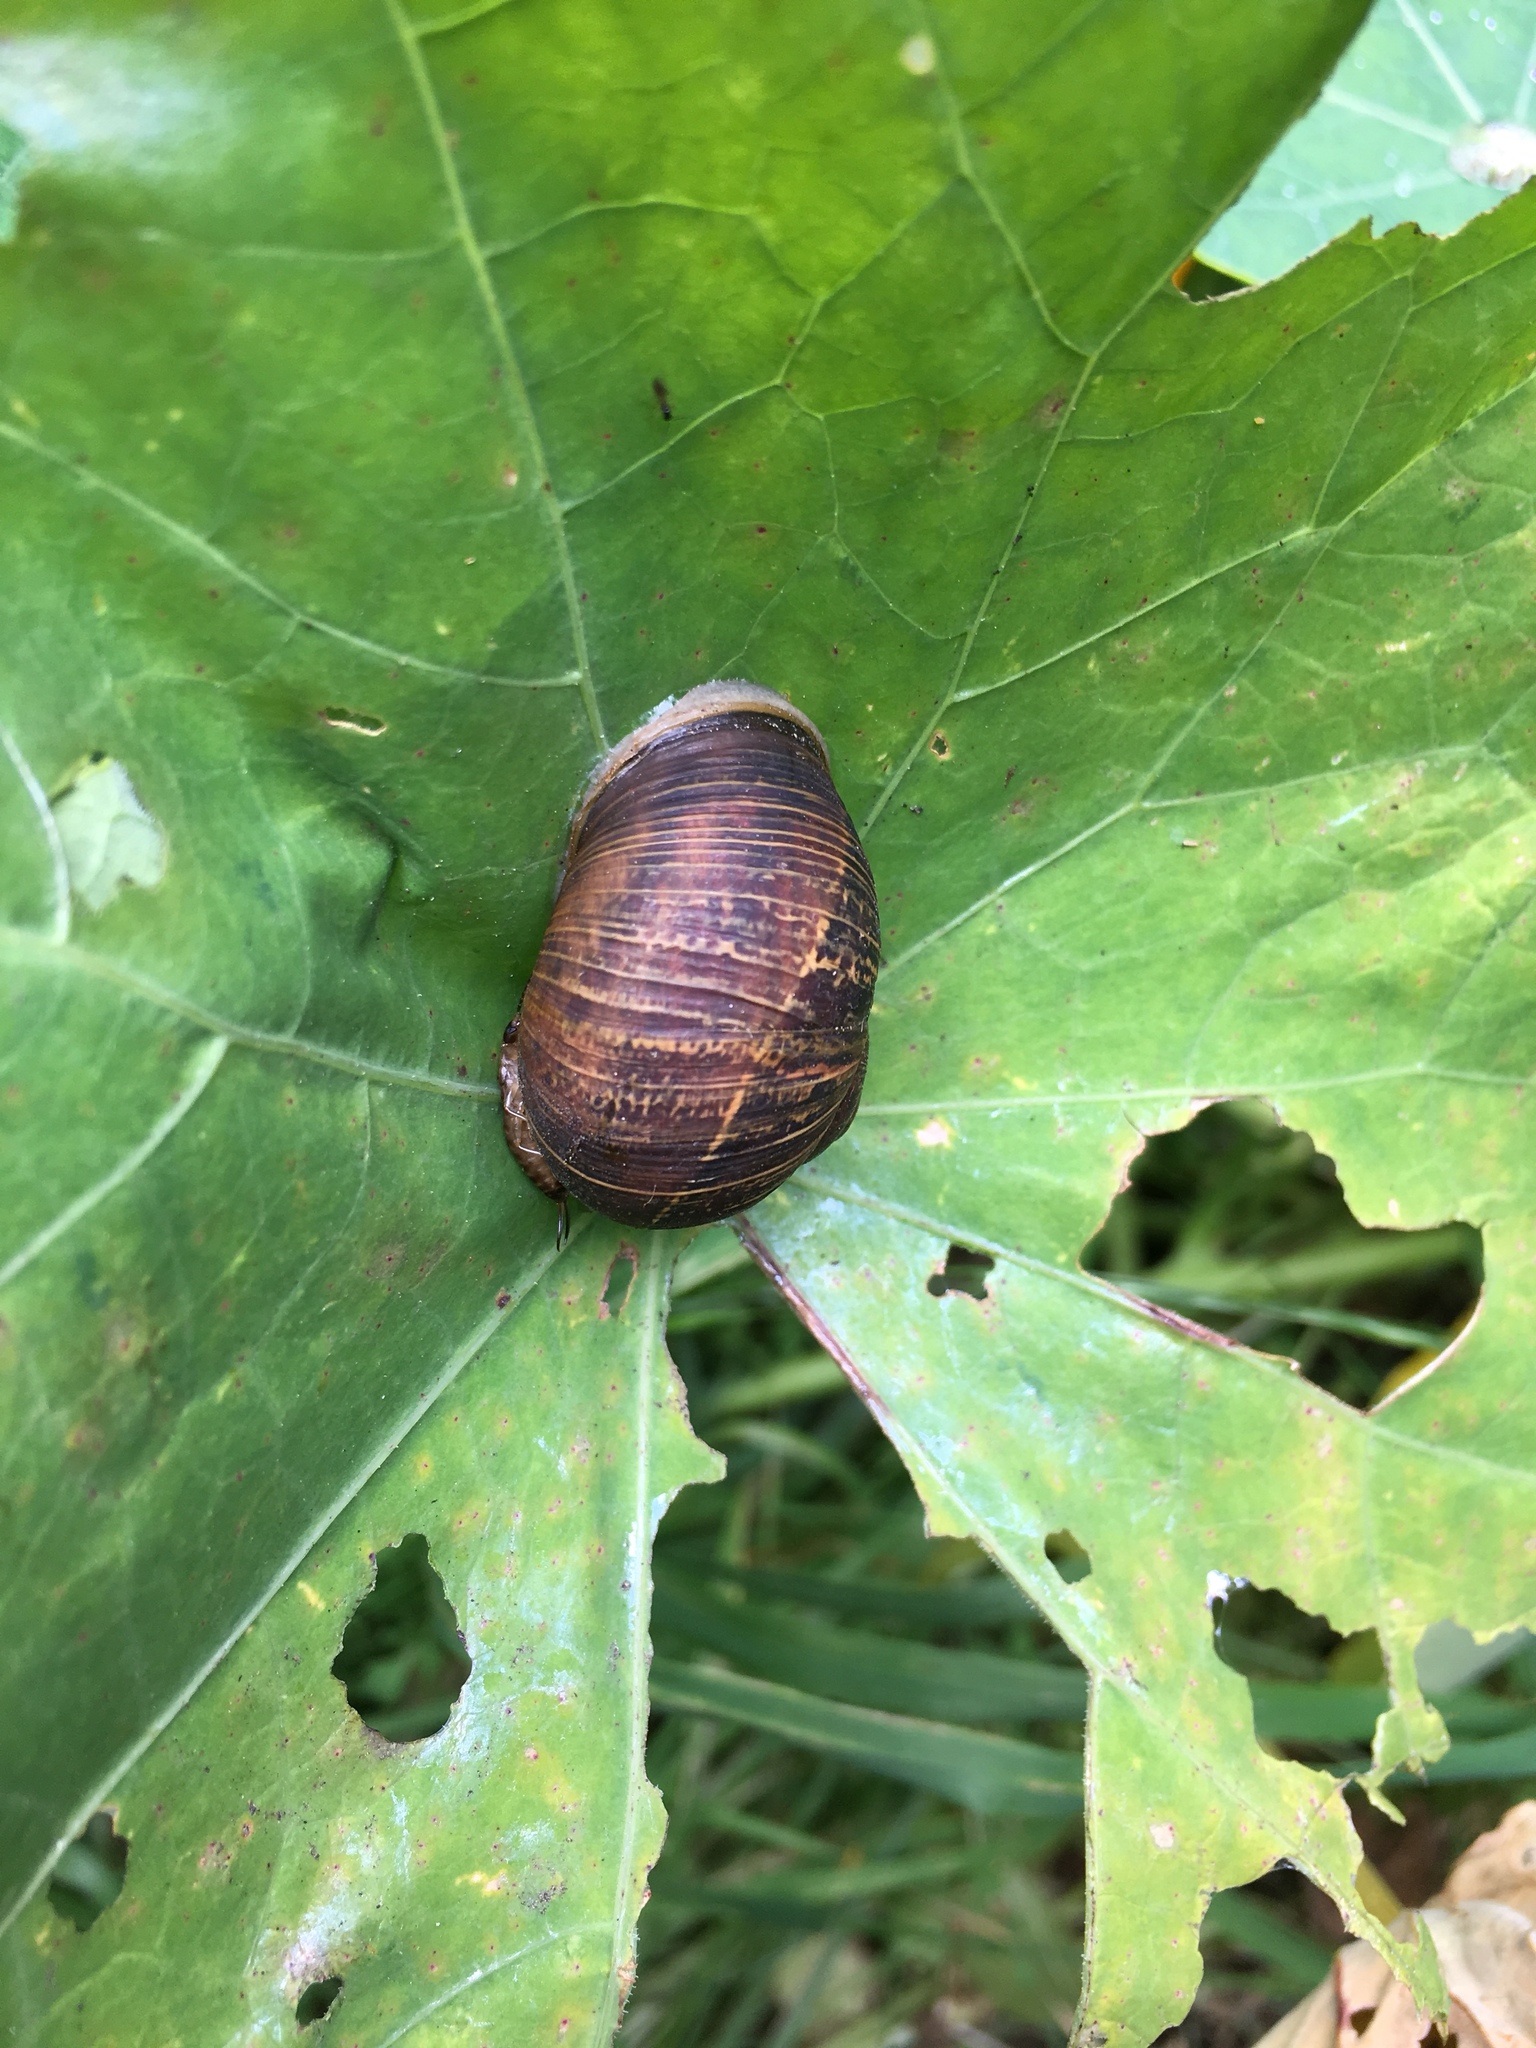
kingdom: Animalia
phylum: Mollusca
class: Gastropoda
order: Stylommatophora
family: Helicidae
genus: Cornu
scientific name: Cornu aspersum
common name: Brown garden snail
